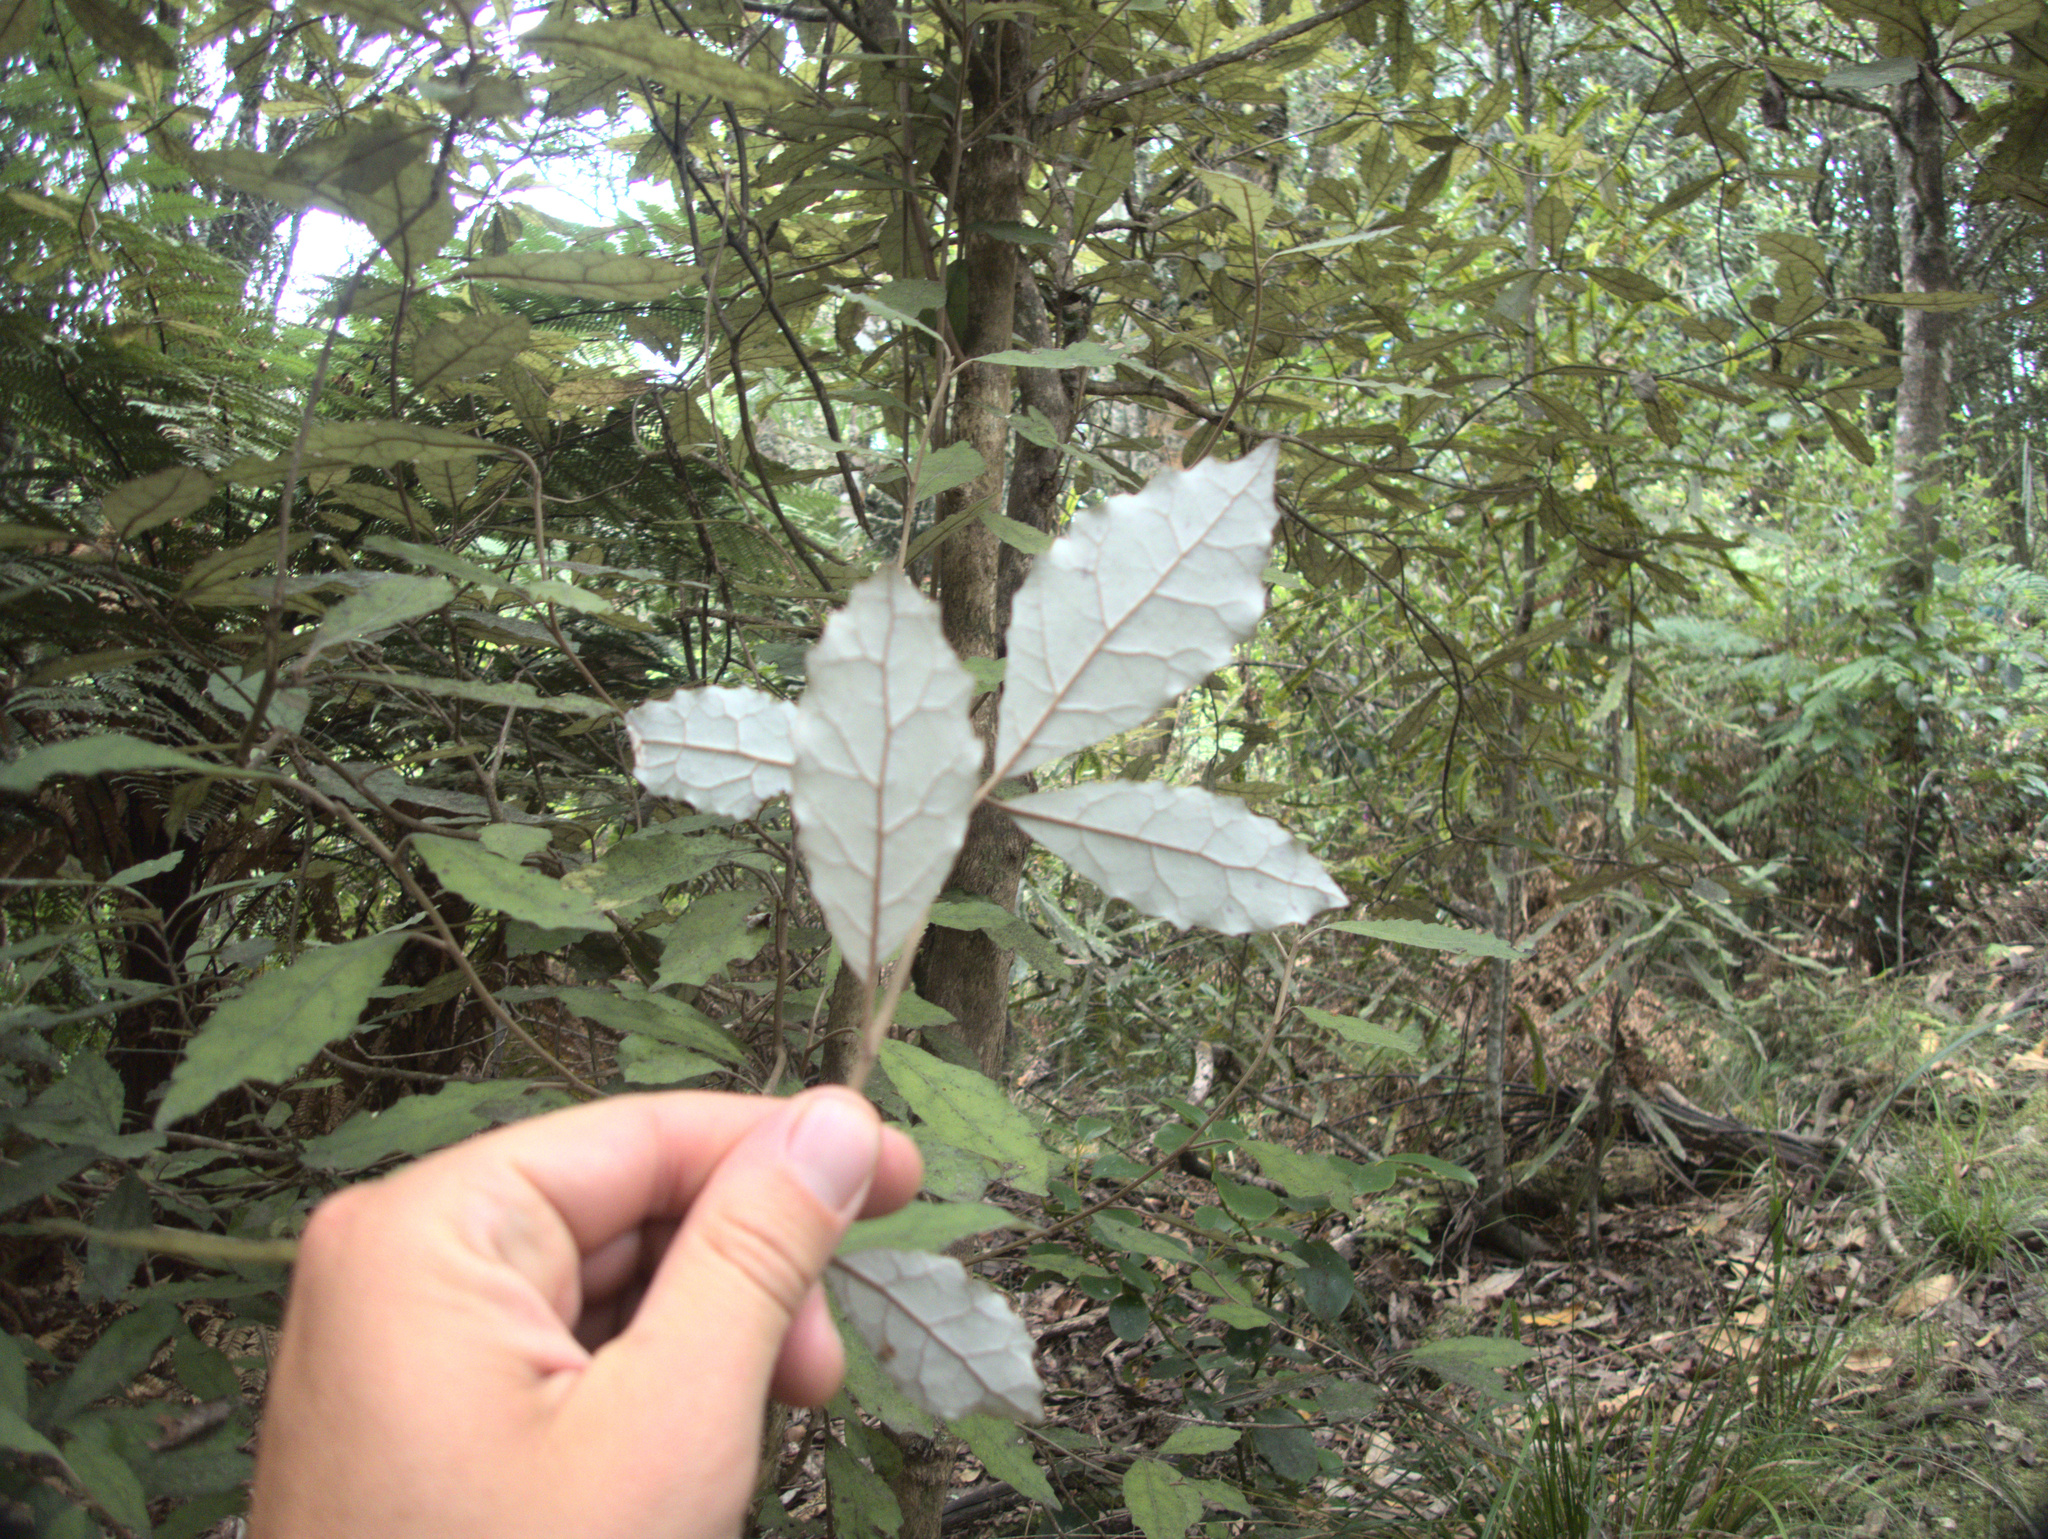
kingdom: Plantae
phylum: Tracheophyta
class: Magnoliopsida
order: Asterales
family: Asteraceae
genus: Olearia
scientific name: Olearia rani
